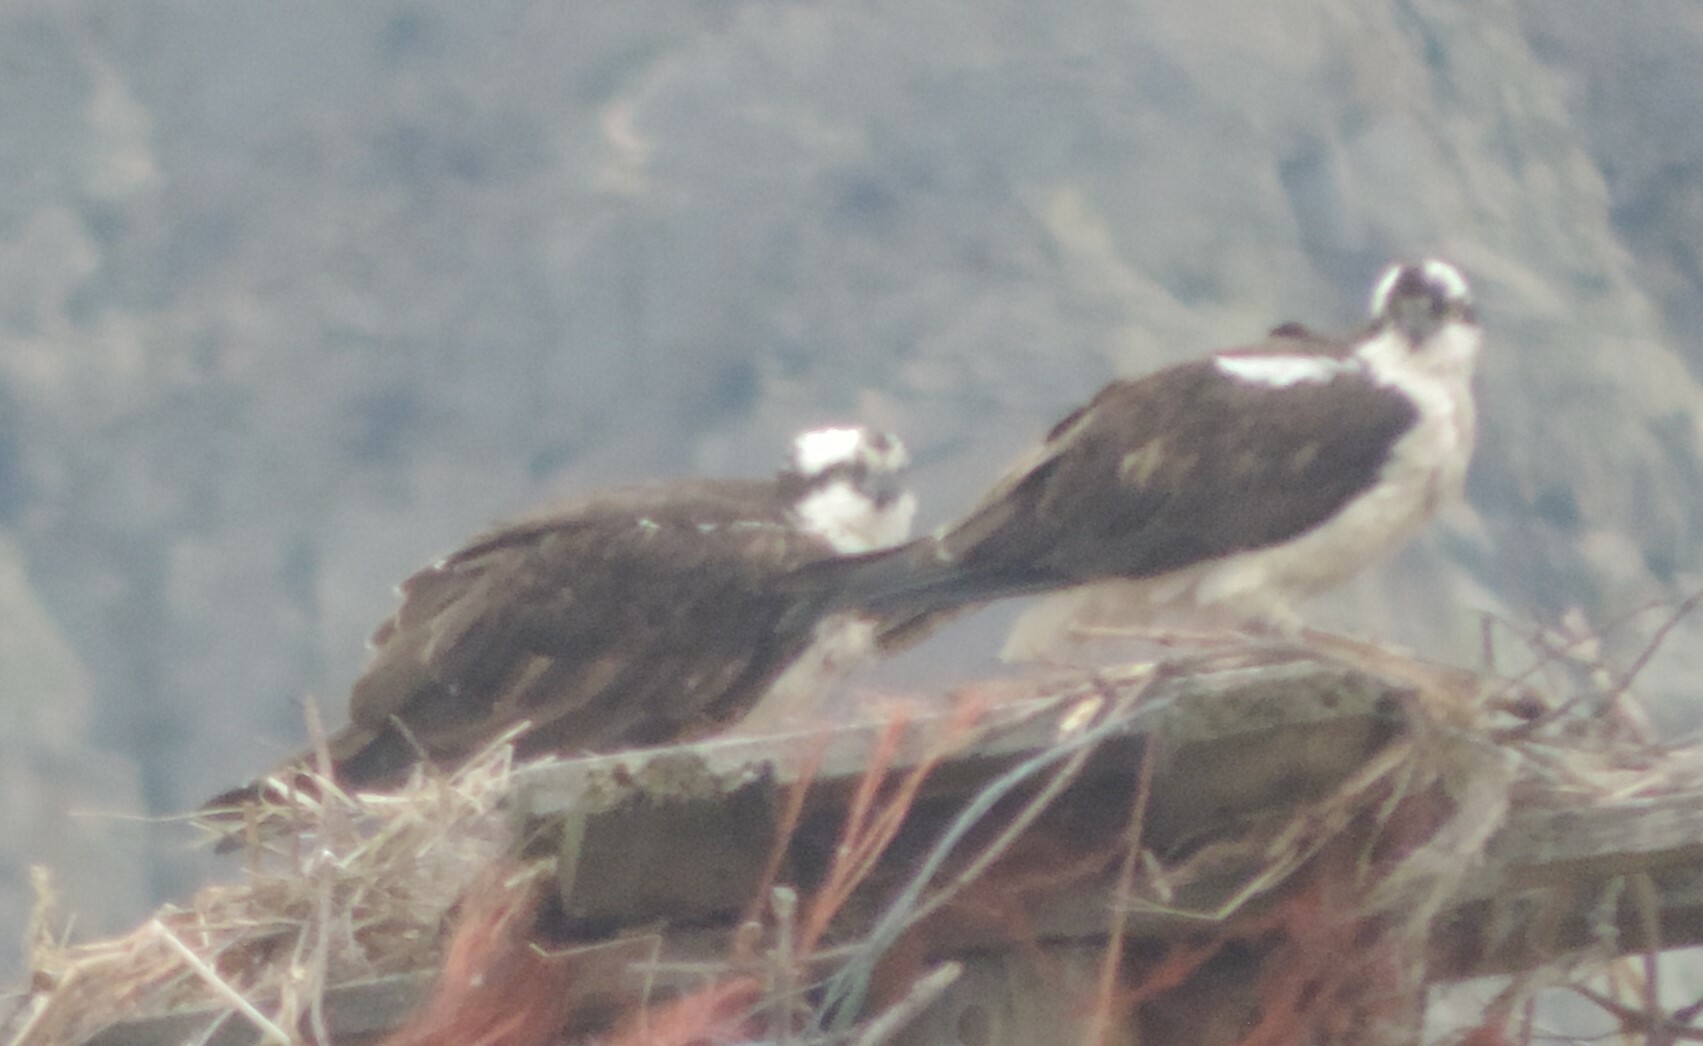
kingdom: Animalia
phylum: Chordata
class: Aves
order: Accipitriformes
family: Pandionidae
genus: Pandion
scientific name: Pandion haliaetus
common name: Osprey
